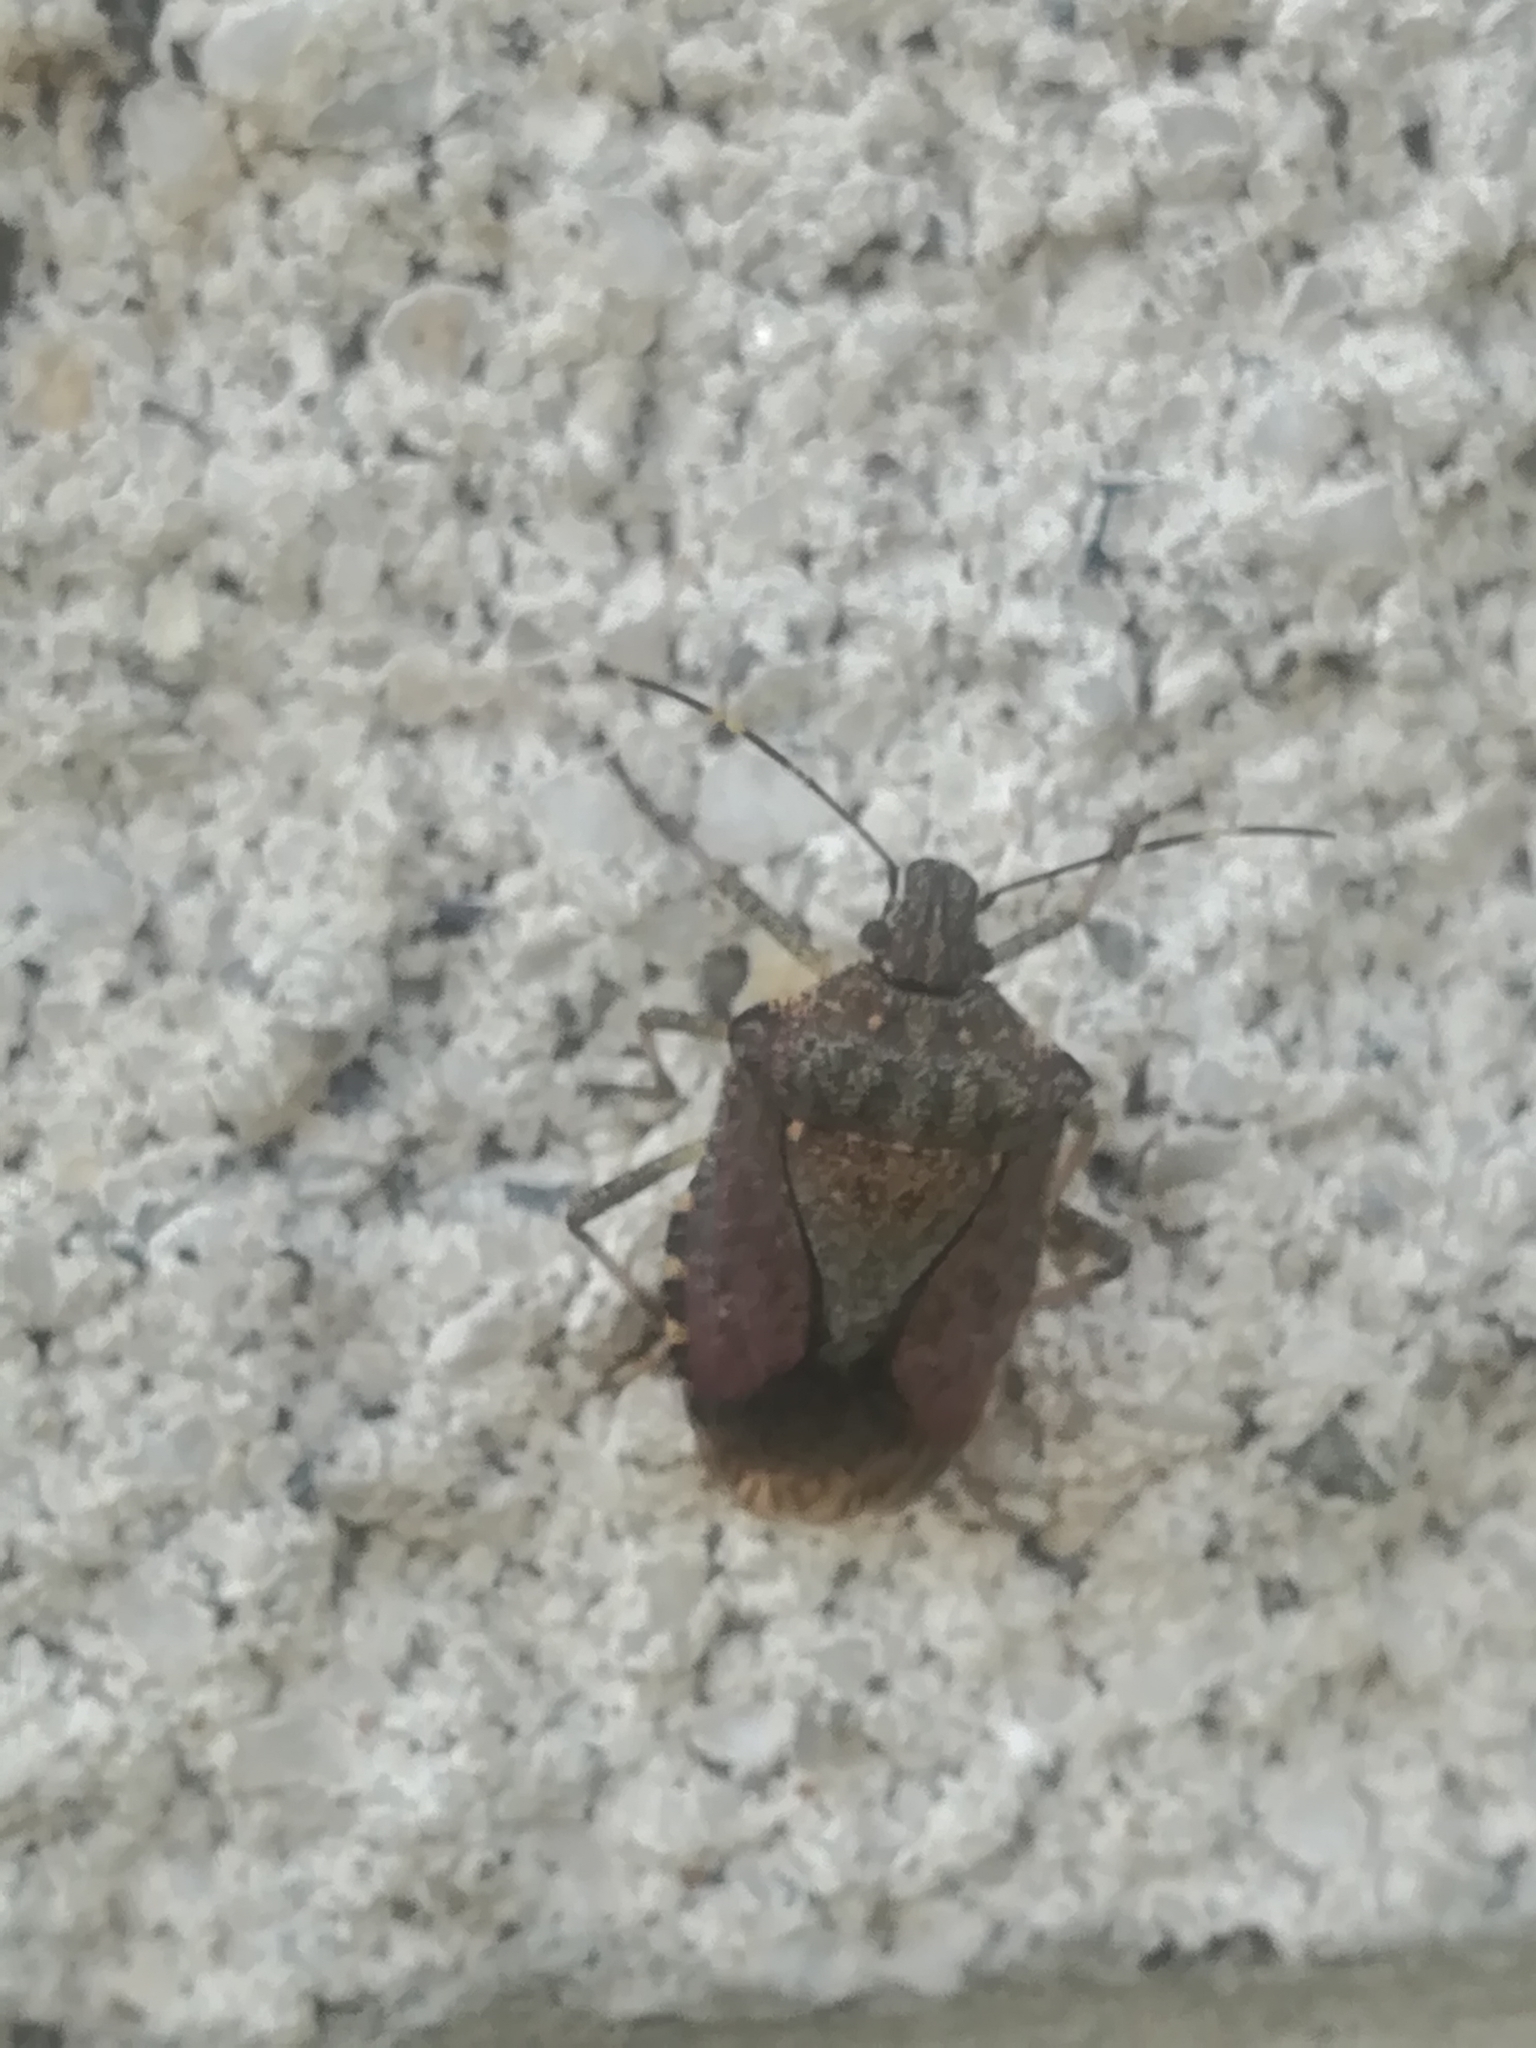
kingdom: Animalia
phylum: Arthropoda
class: Insecta
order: Hemiptera
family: Pentatomidae
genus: Halyomorpha
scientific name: Halyomorpha halys
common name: Brown marmorated stink bug
